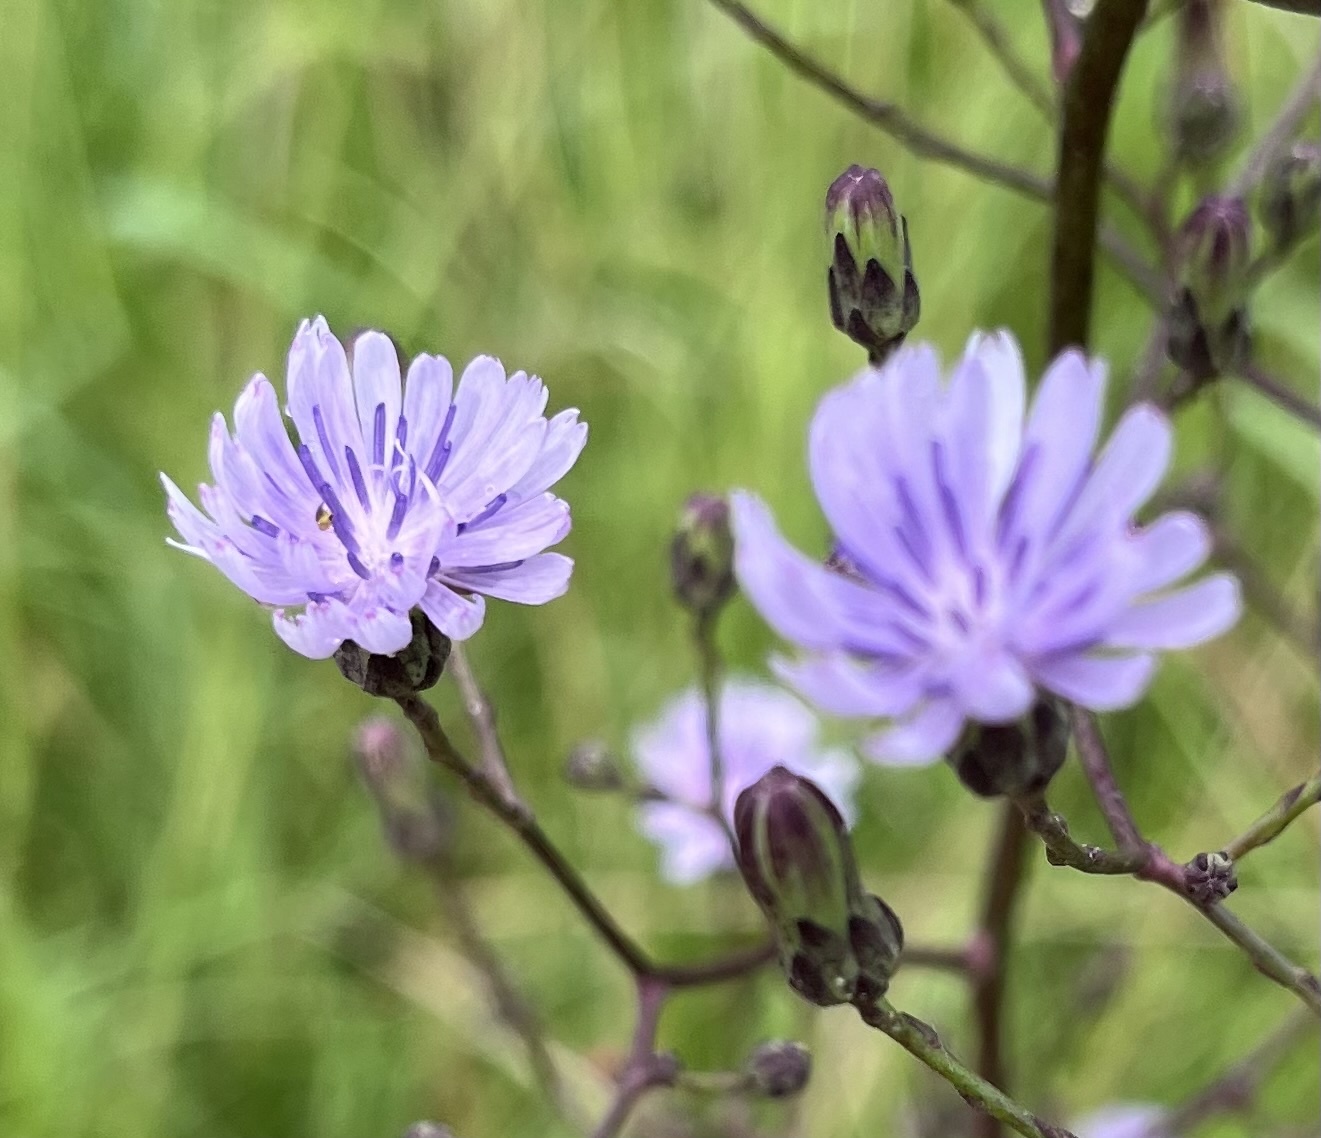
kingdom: Plantae
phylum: Tracheophyta
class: Magnoliopsida
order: Asterales
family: Asteraceae
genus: Lactuca
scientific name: Lactuca floridana
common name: Woodland lettuce
